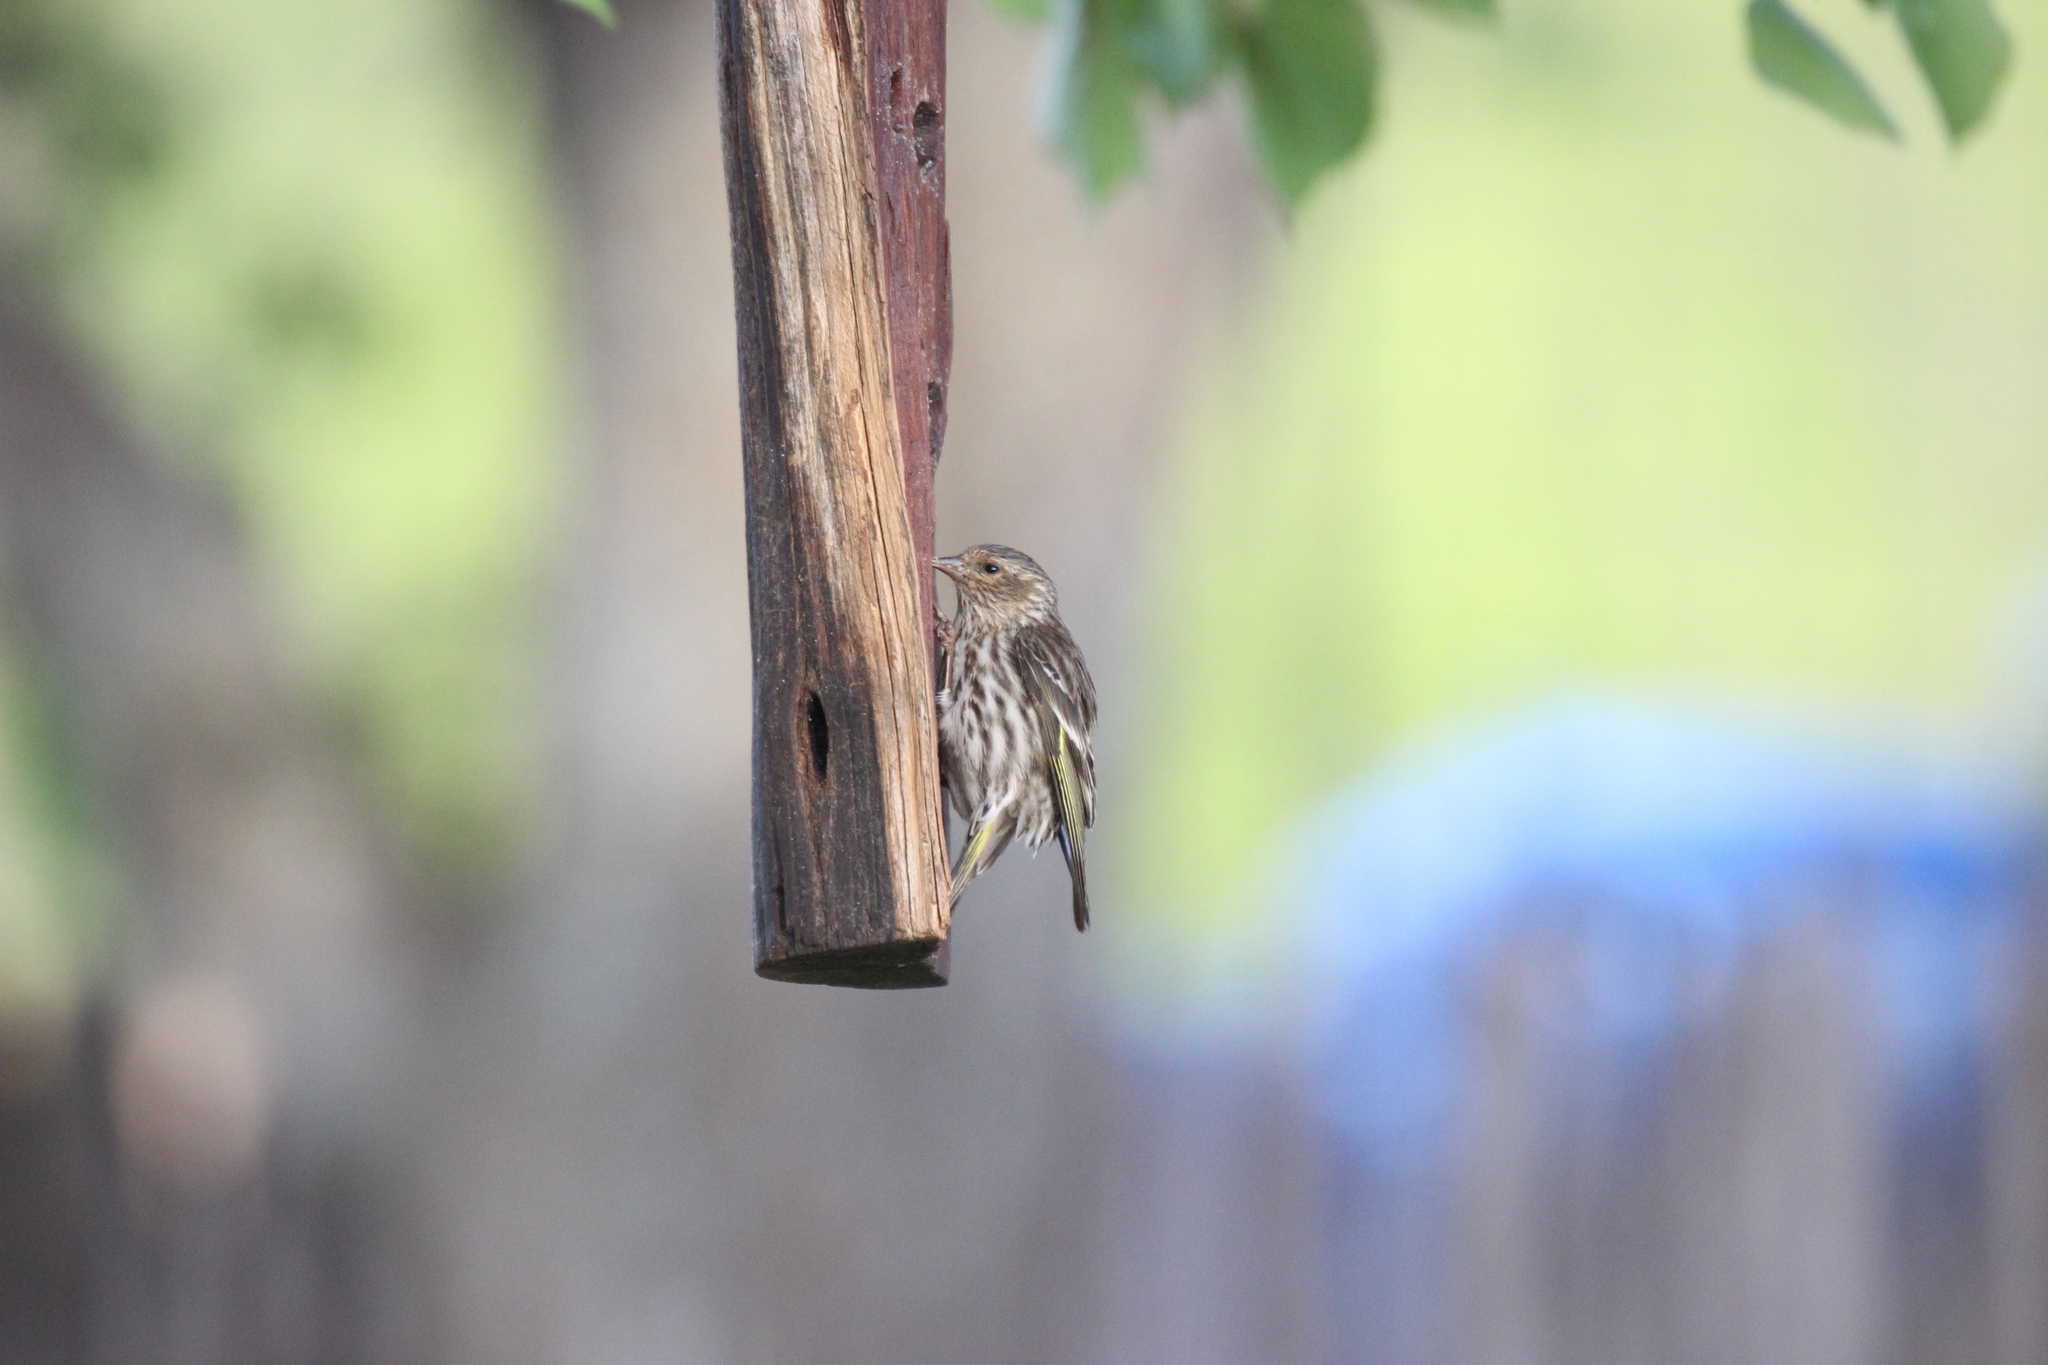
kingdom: Animalia
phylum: Chordata
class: Aves
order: Passeriformes
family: Fringillidae
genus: Spinus
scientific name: Spinus pinus
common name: Pine siskin
